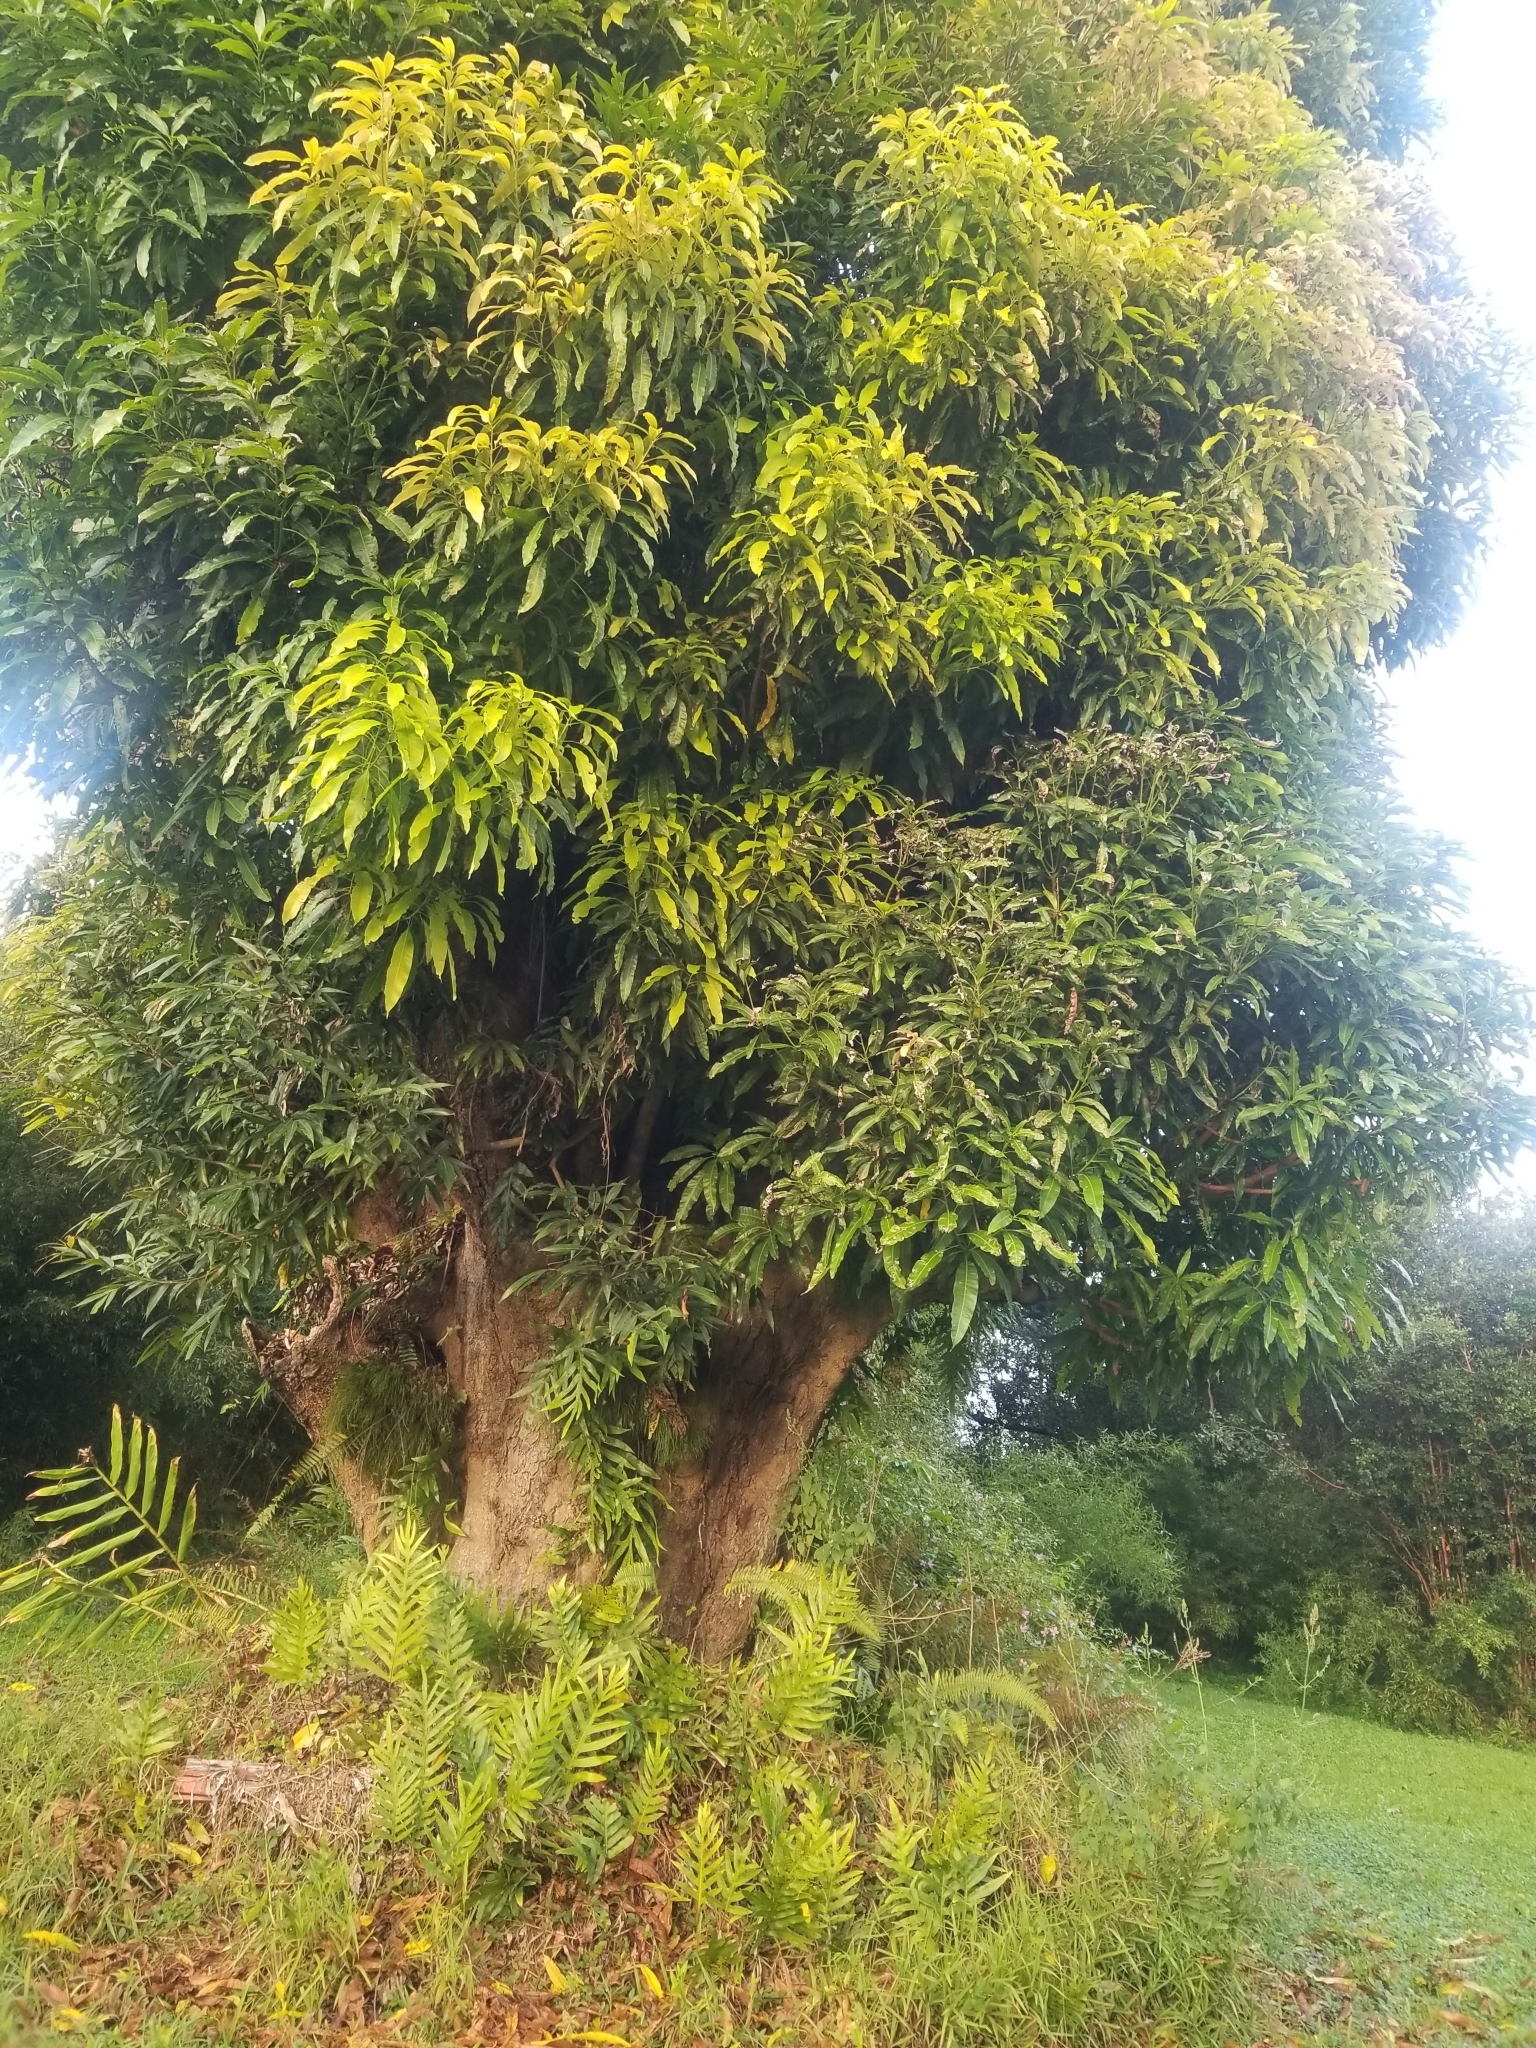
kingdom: Plantae
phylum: Tracheophyta
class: Magnoliopsida
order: Sapindales
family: Anacardiaceae
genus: Mangifera
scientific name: Mangifera indica
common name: Mango
